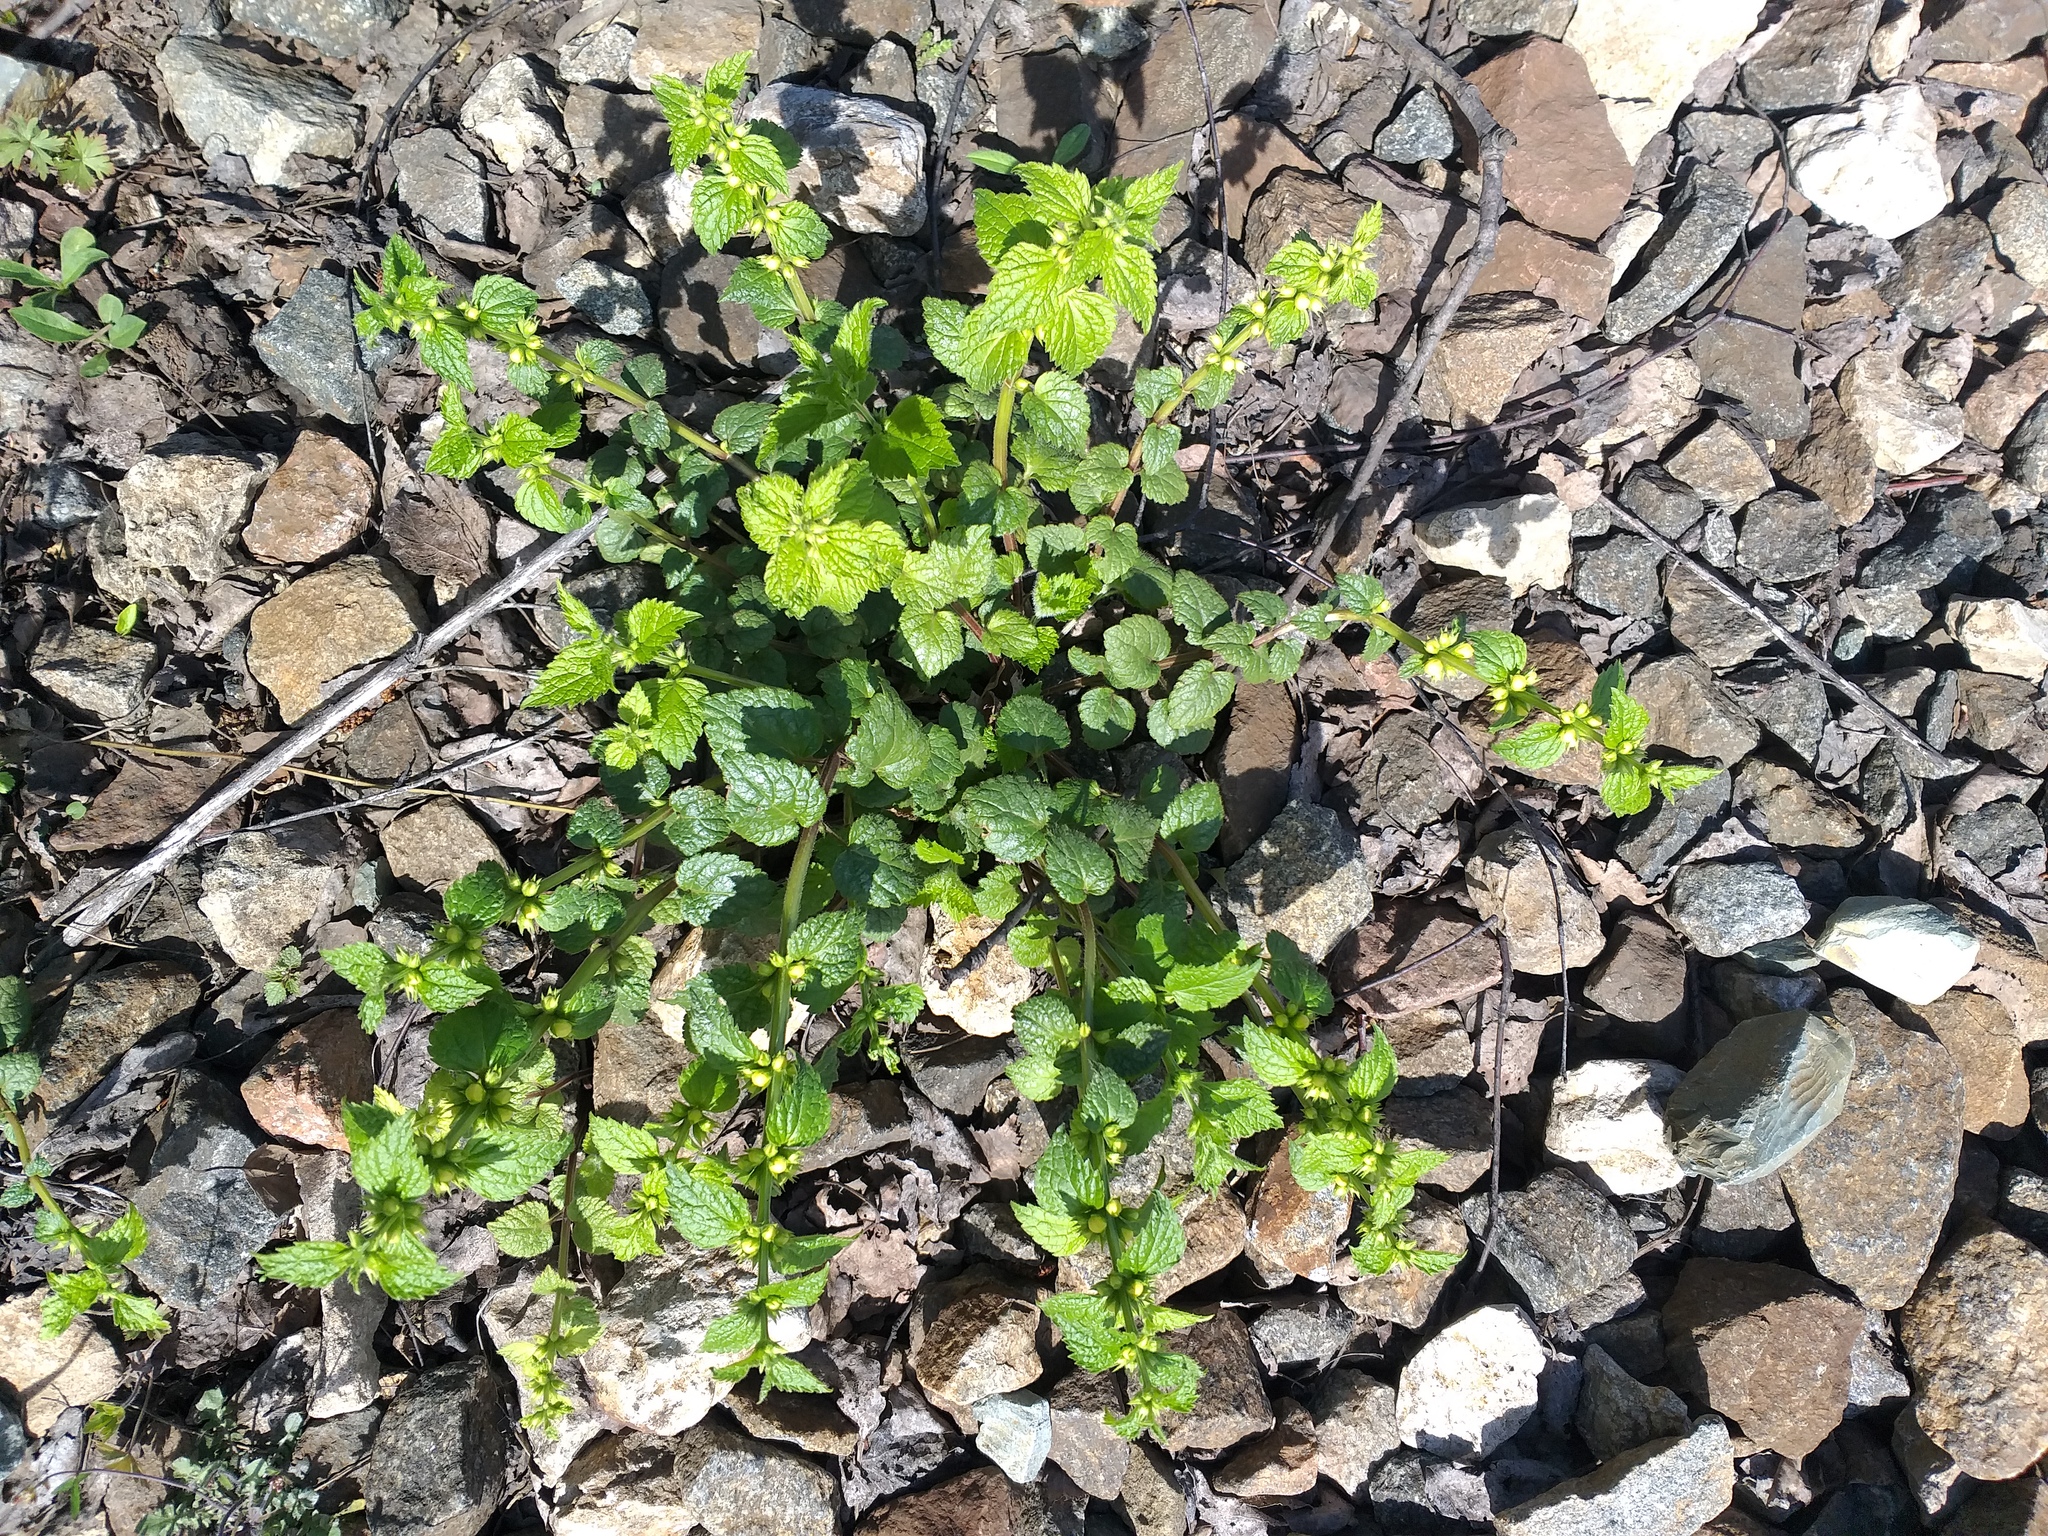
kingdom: Plantae
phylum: Tracheophyta
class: Magnoliopsida
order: Lamiales
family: Lamiaceae
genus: Lamium
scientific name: Lamium galeobdolon
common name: Yellow archangel
